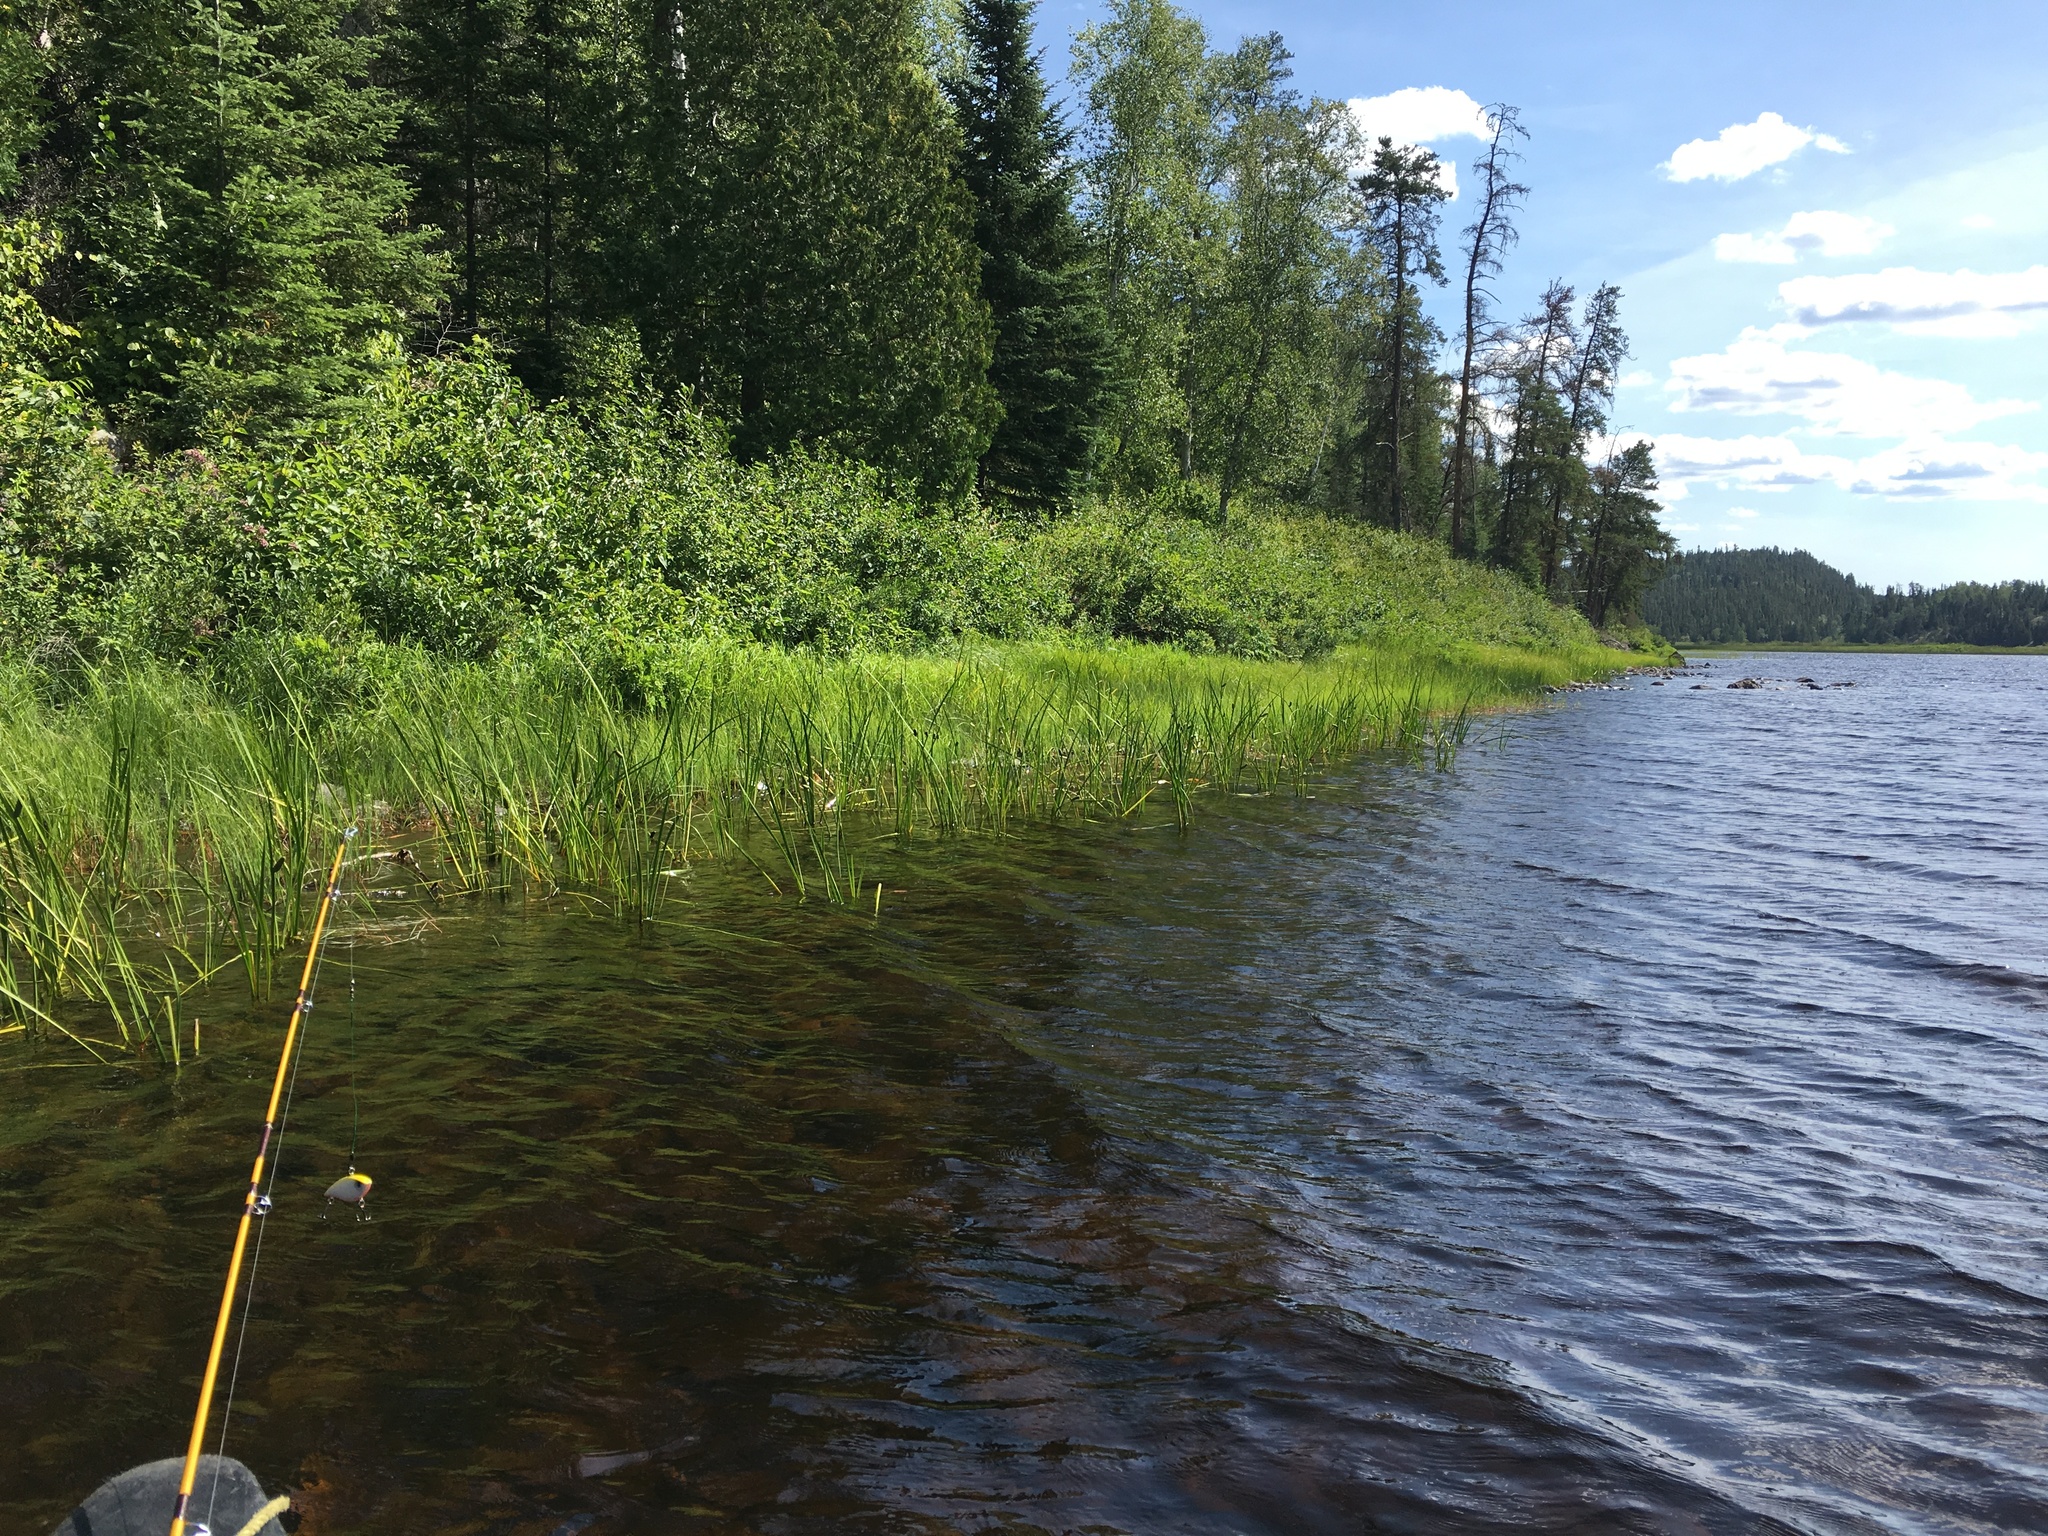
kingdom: Plantae
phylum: Tracheophyta
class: Liliopsida
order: Acorales
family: Acoraceae
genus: Acorus
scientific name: Acorus calamus
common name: Sweet-flag
